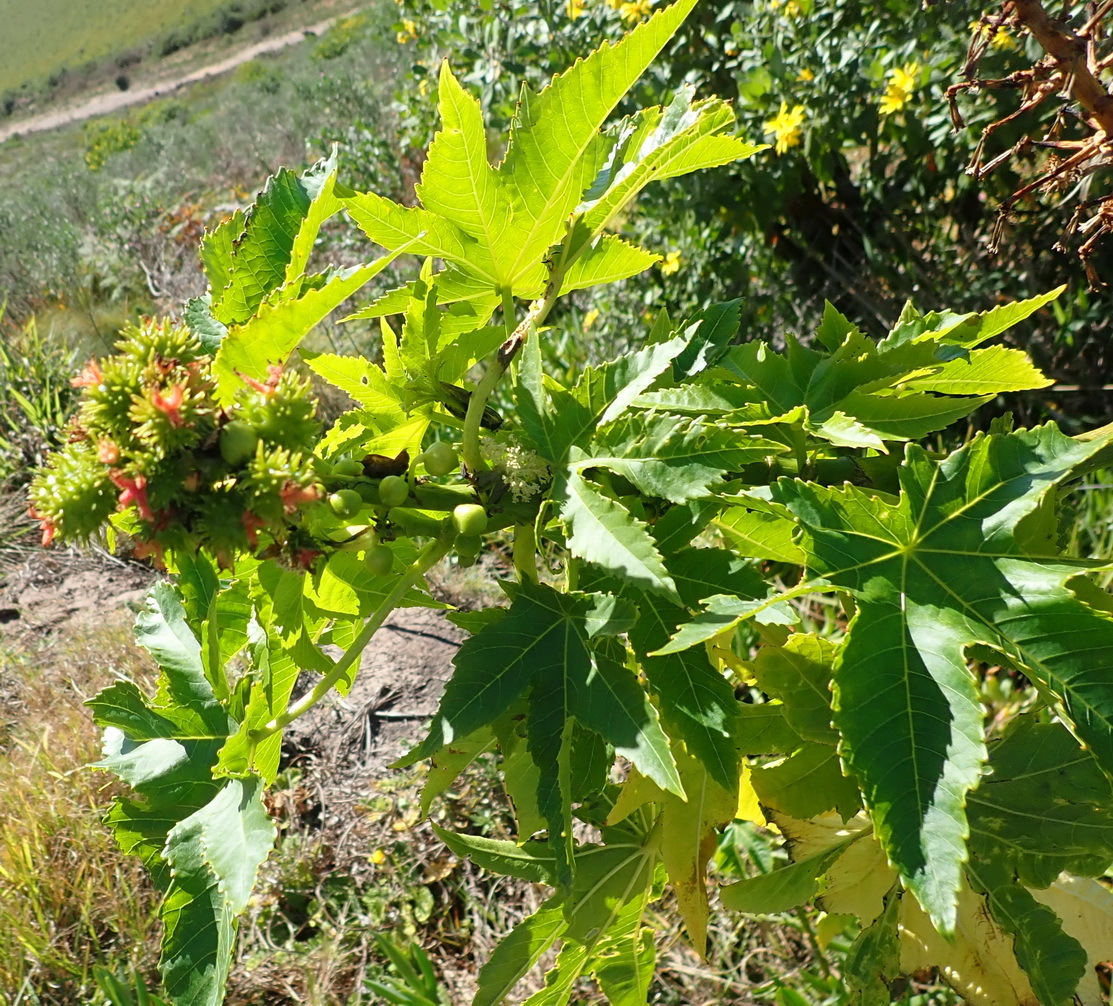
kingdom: Plantae
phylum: Tracheophyta
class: Magnoliopsida
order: Malpighiales
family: Euphorbiaceae
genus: Ricinus
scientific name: Ricinus communis
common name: Castor-oil-plant
